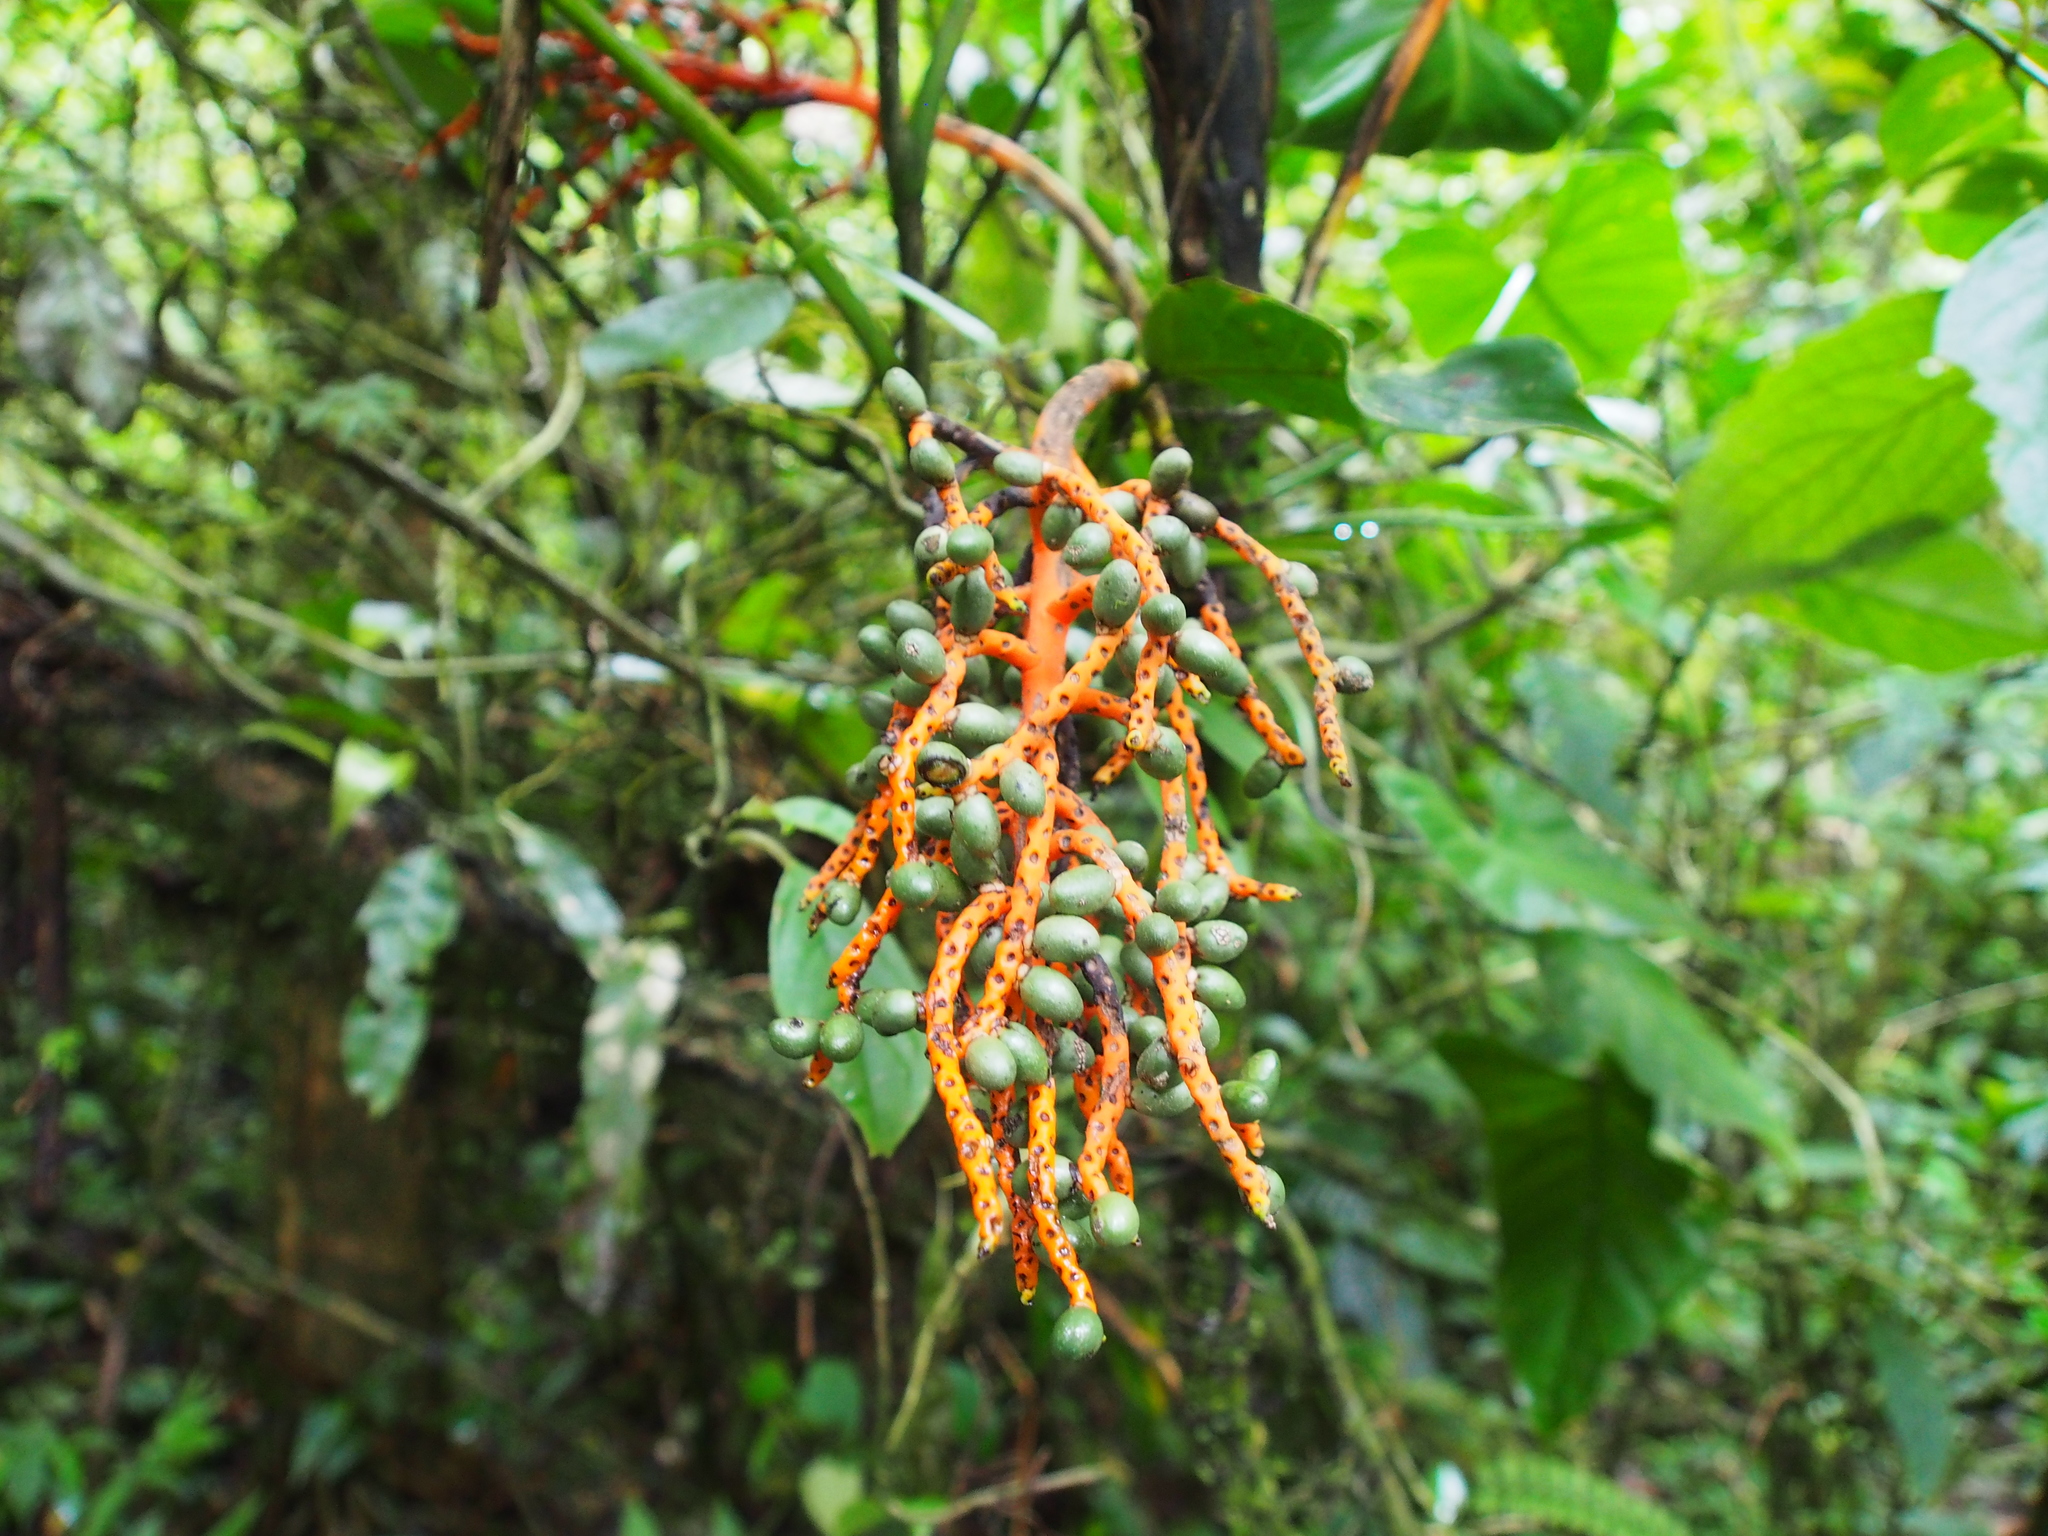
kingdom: Plantae
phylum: Tracheophyta
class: Liliopsida
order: Arecales
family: Arecaceae
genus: Chamaedorea
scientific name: Chamaedorea tepejilote
